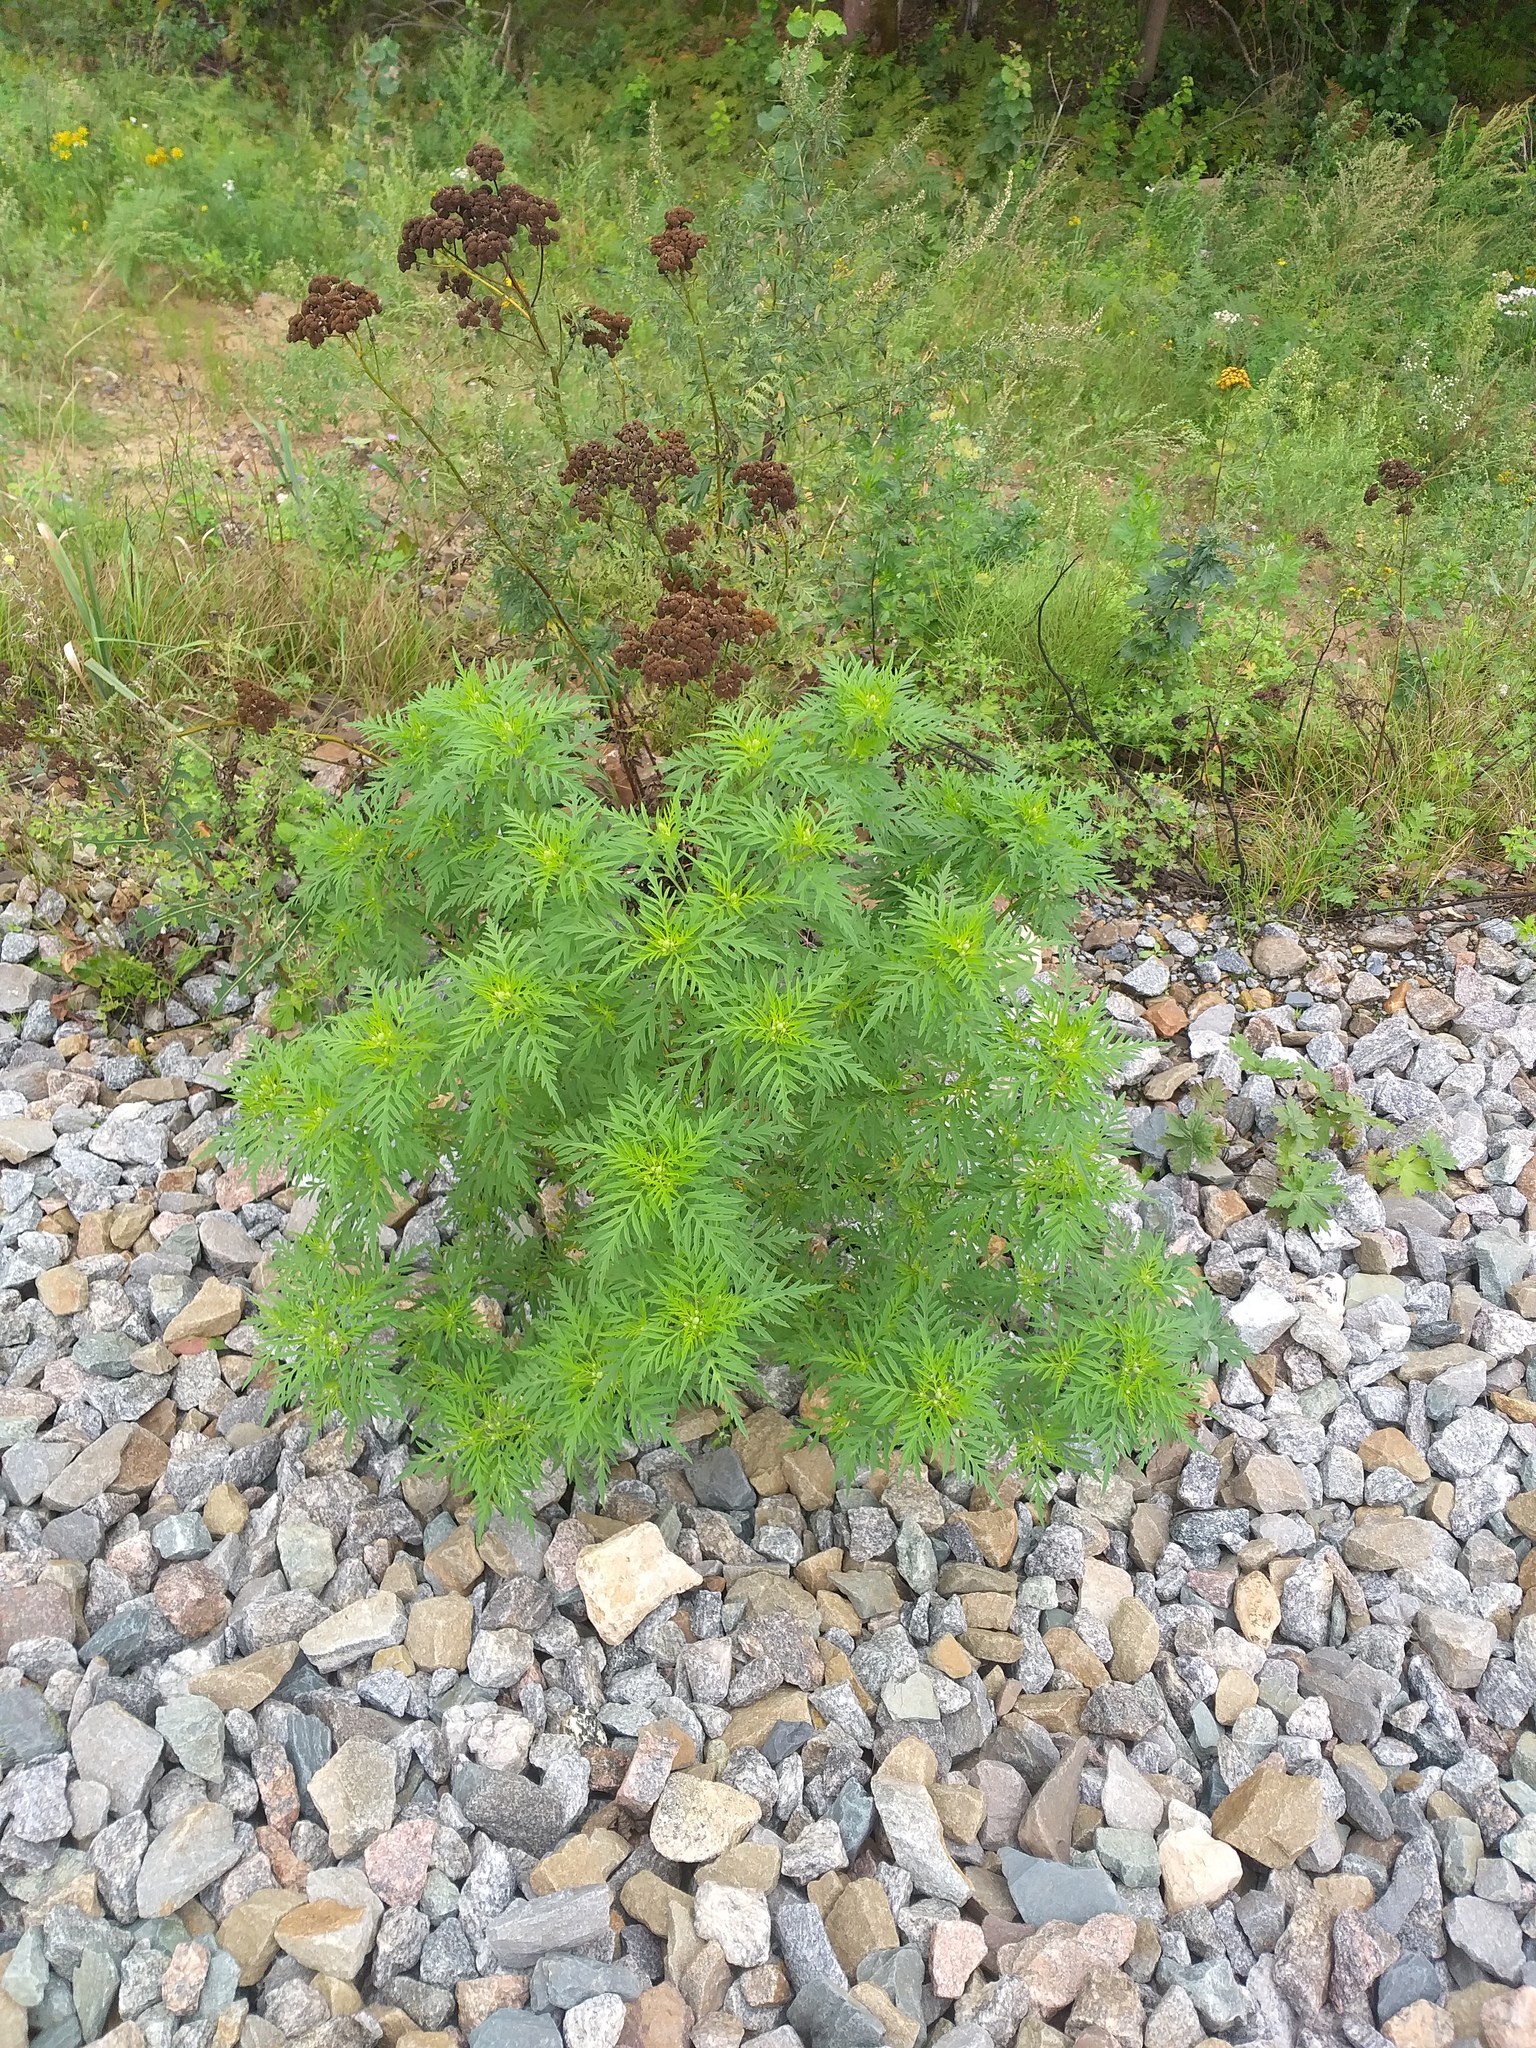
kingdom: Plantae
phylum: Tracheophyta
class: Magnoliopsida
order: Asterales
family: Asteraceae
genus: Ambrosia
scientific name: Ambrosia artemisiifolia
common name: Annual ragweed
